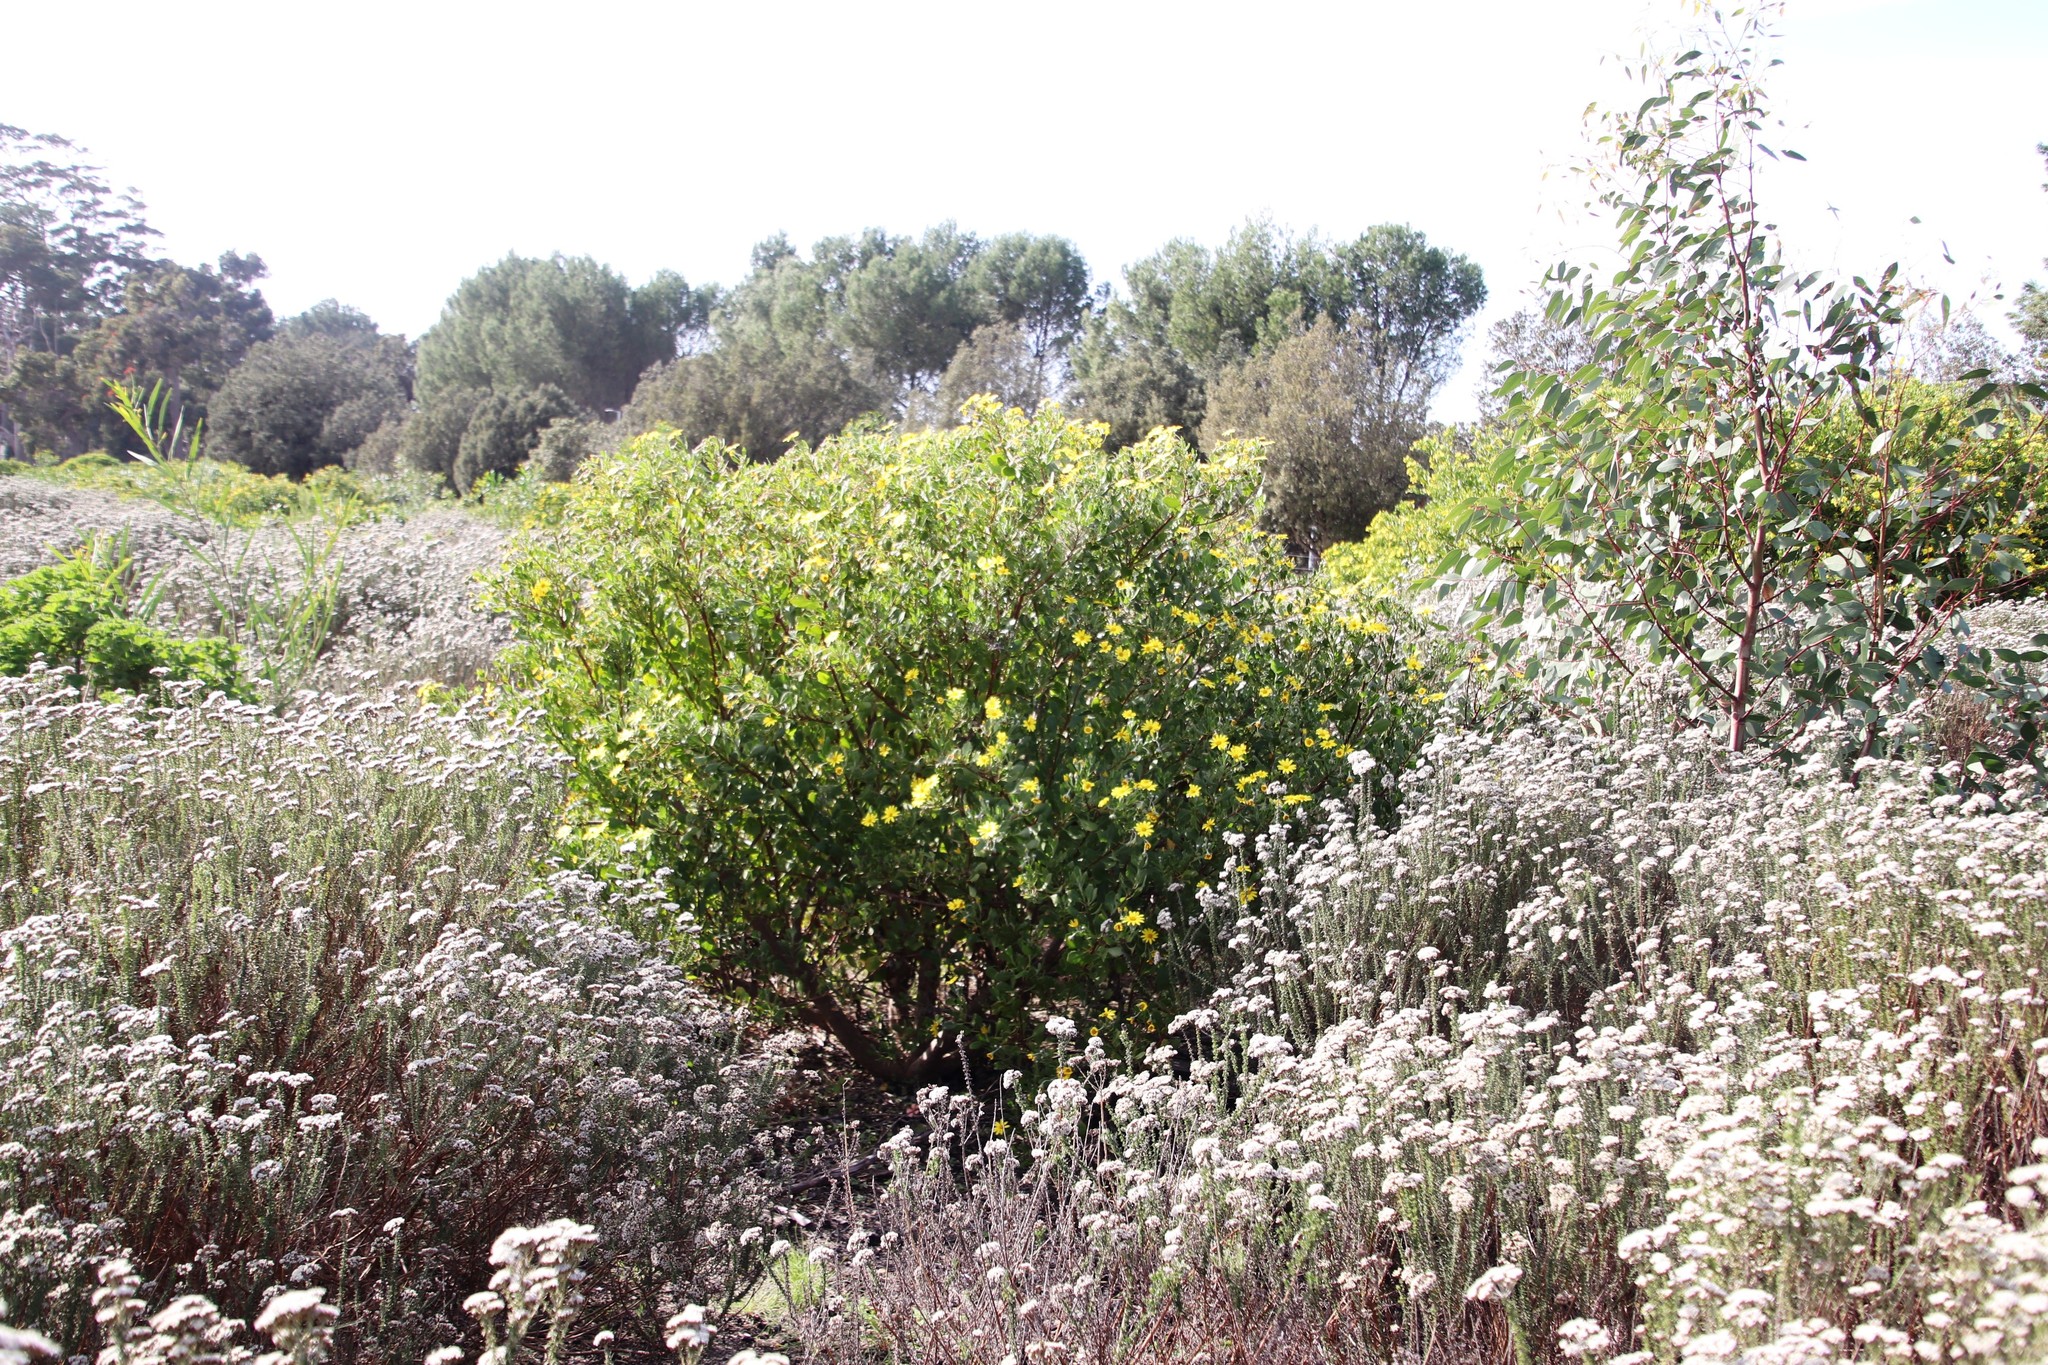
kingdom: Plantae
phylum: Tracheophyta
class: Magnoliopsida
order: Asterales
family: Asteraceae
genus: Osteospermum
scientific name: Osteospermum moniliferum
